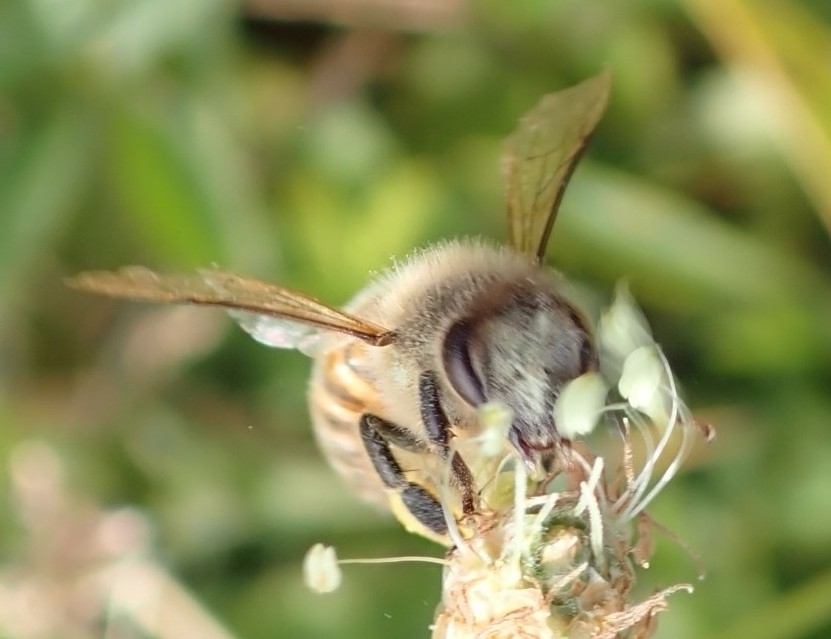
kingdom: Animalia
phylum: Arthropoda
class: Insecta
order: Hymenoptera
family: Apidae
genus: Apis
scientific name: Apis mellifera
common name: Honey bee
